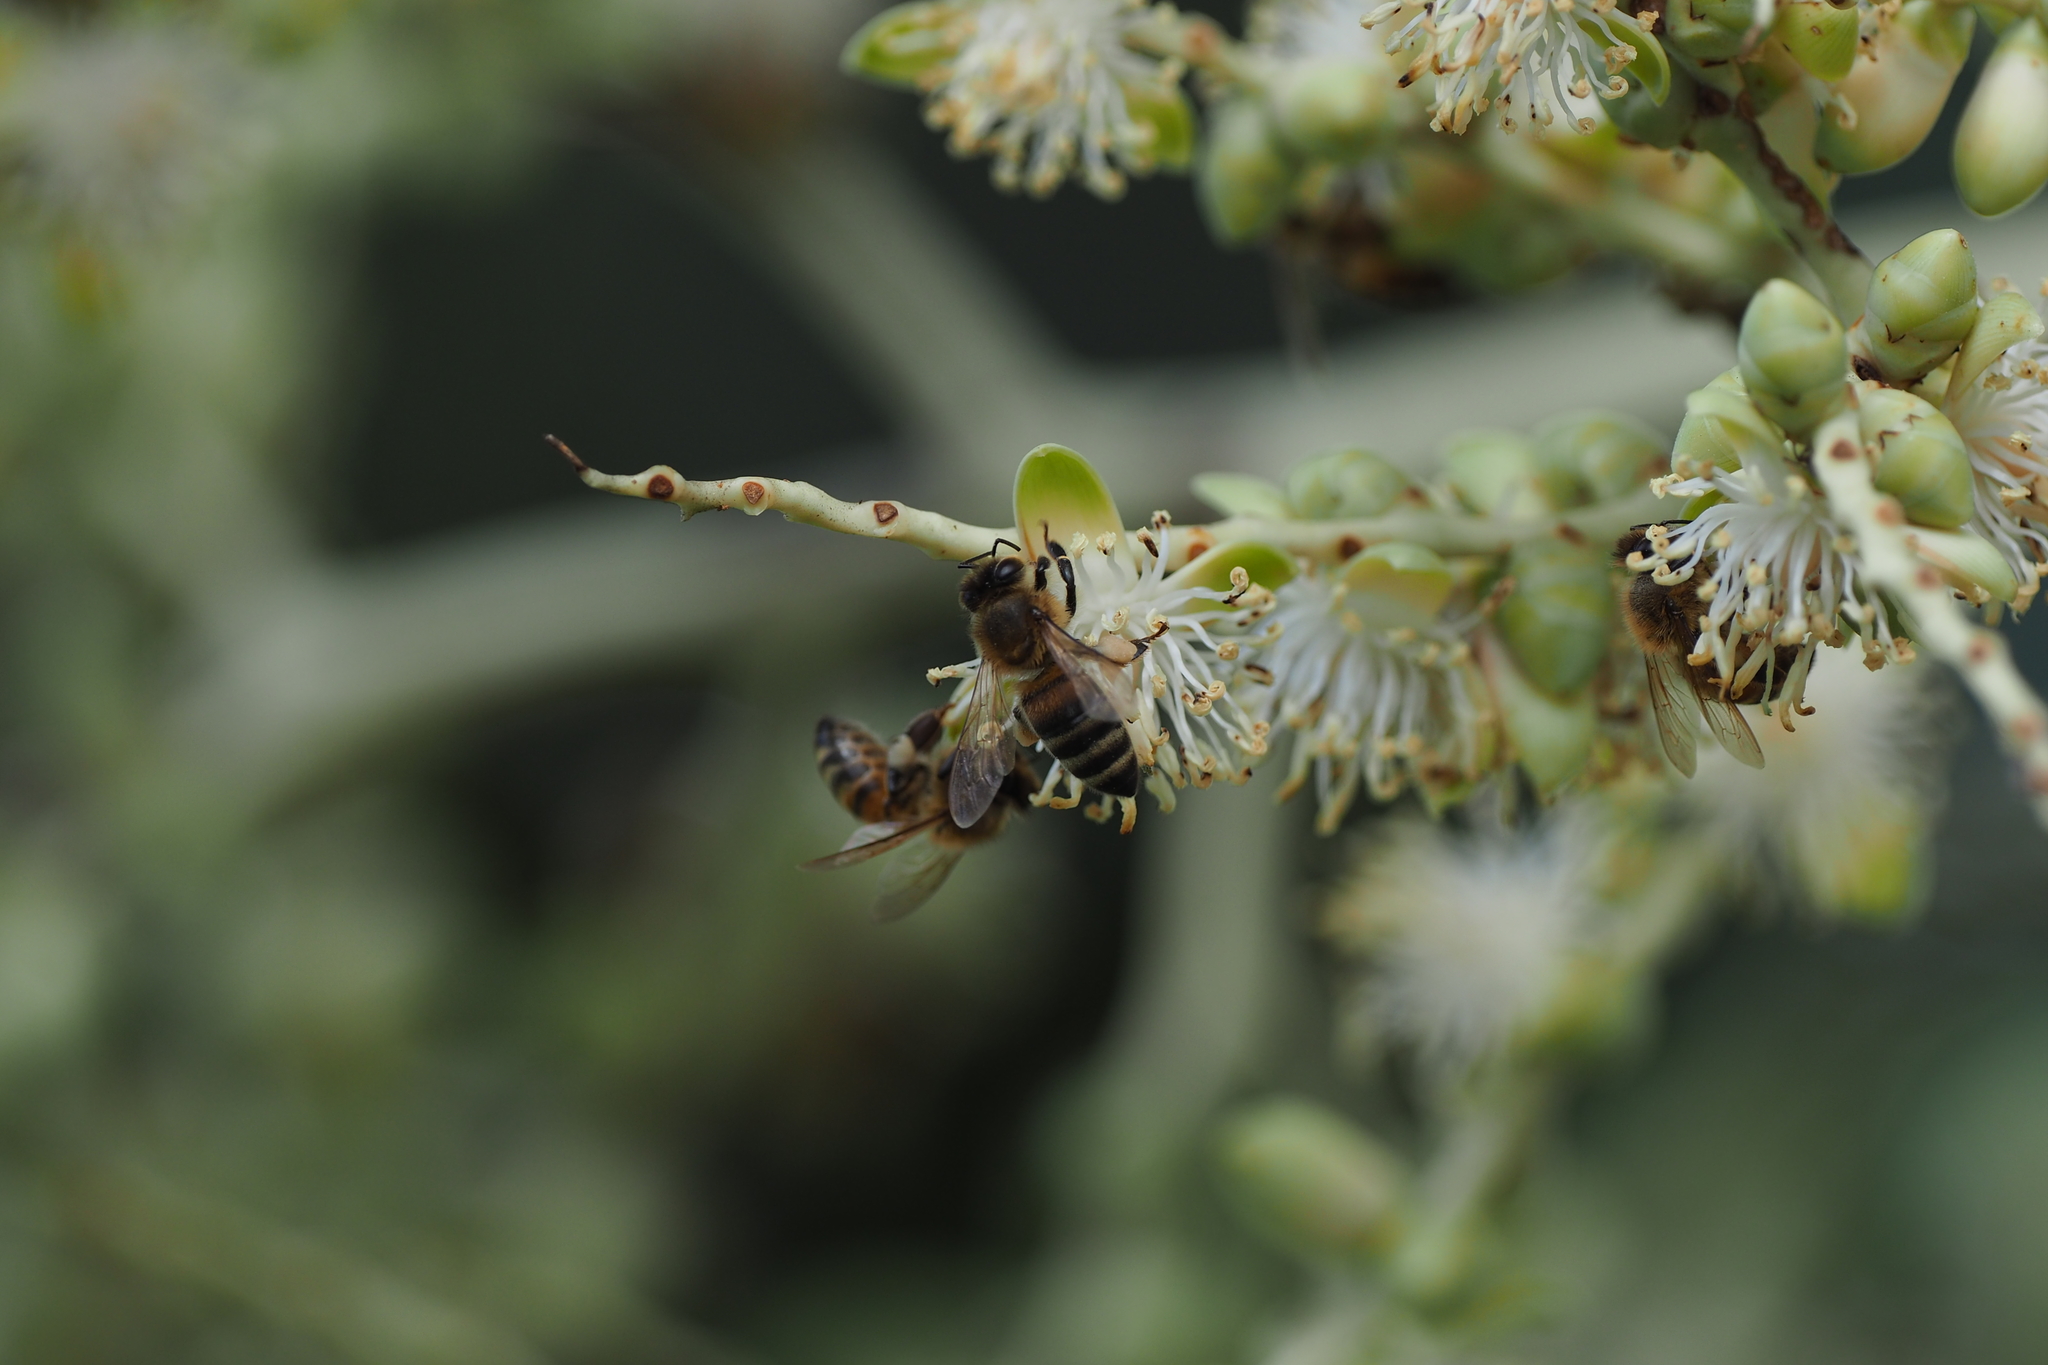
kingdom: Animalia
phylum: Arthropoda
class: Insecta
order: Hymenoptera
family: Apidae
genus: Apis
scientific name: Apis mellifera
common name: Honey bee
